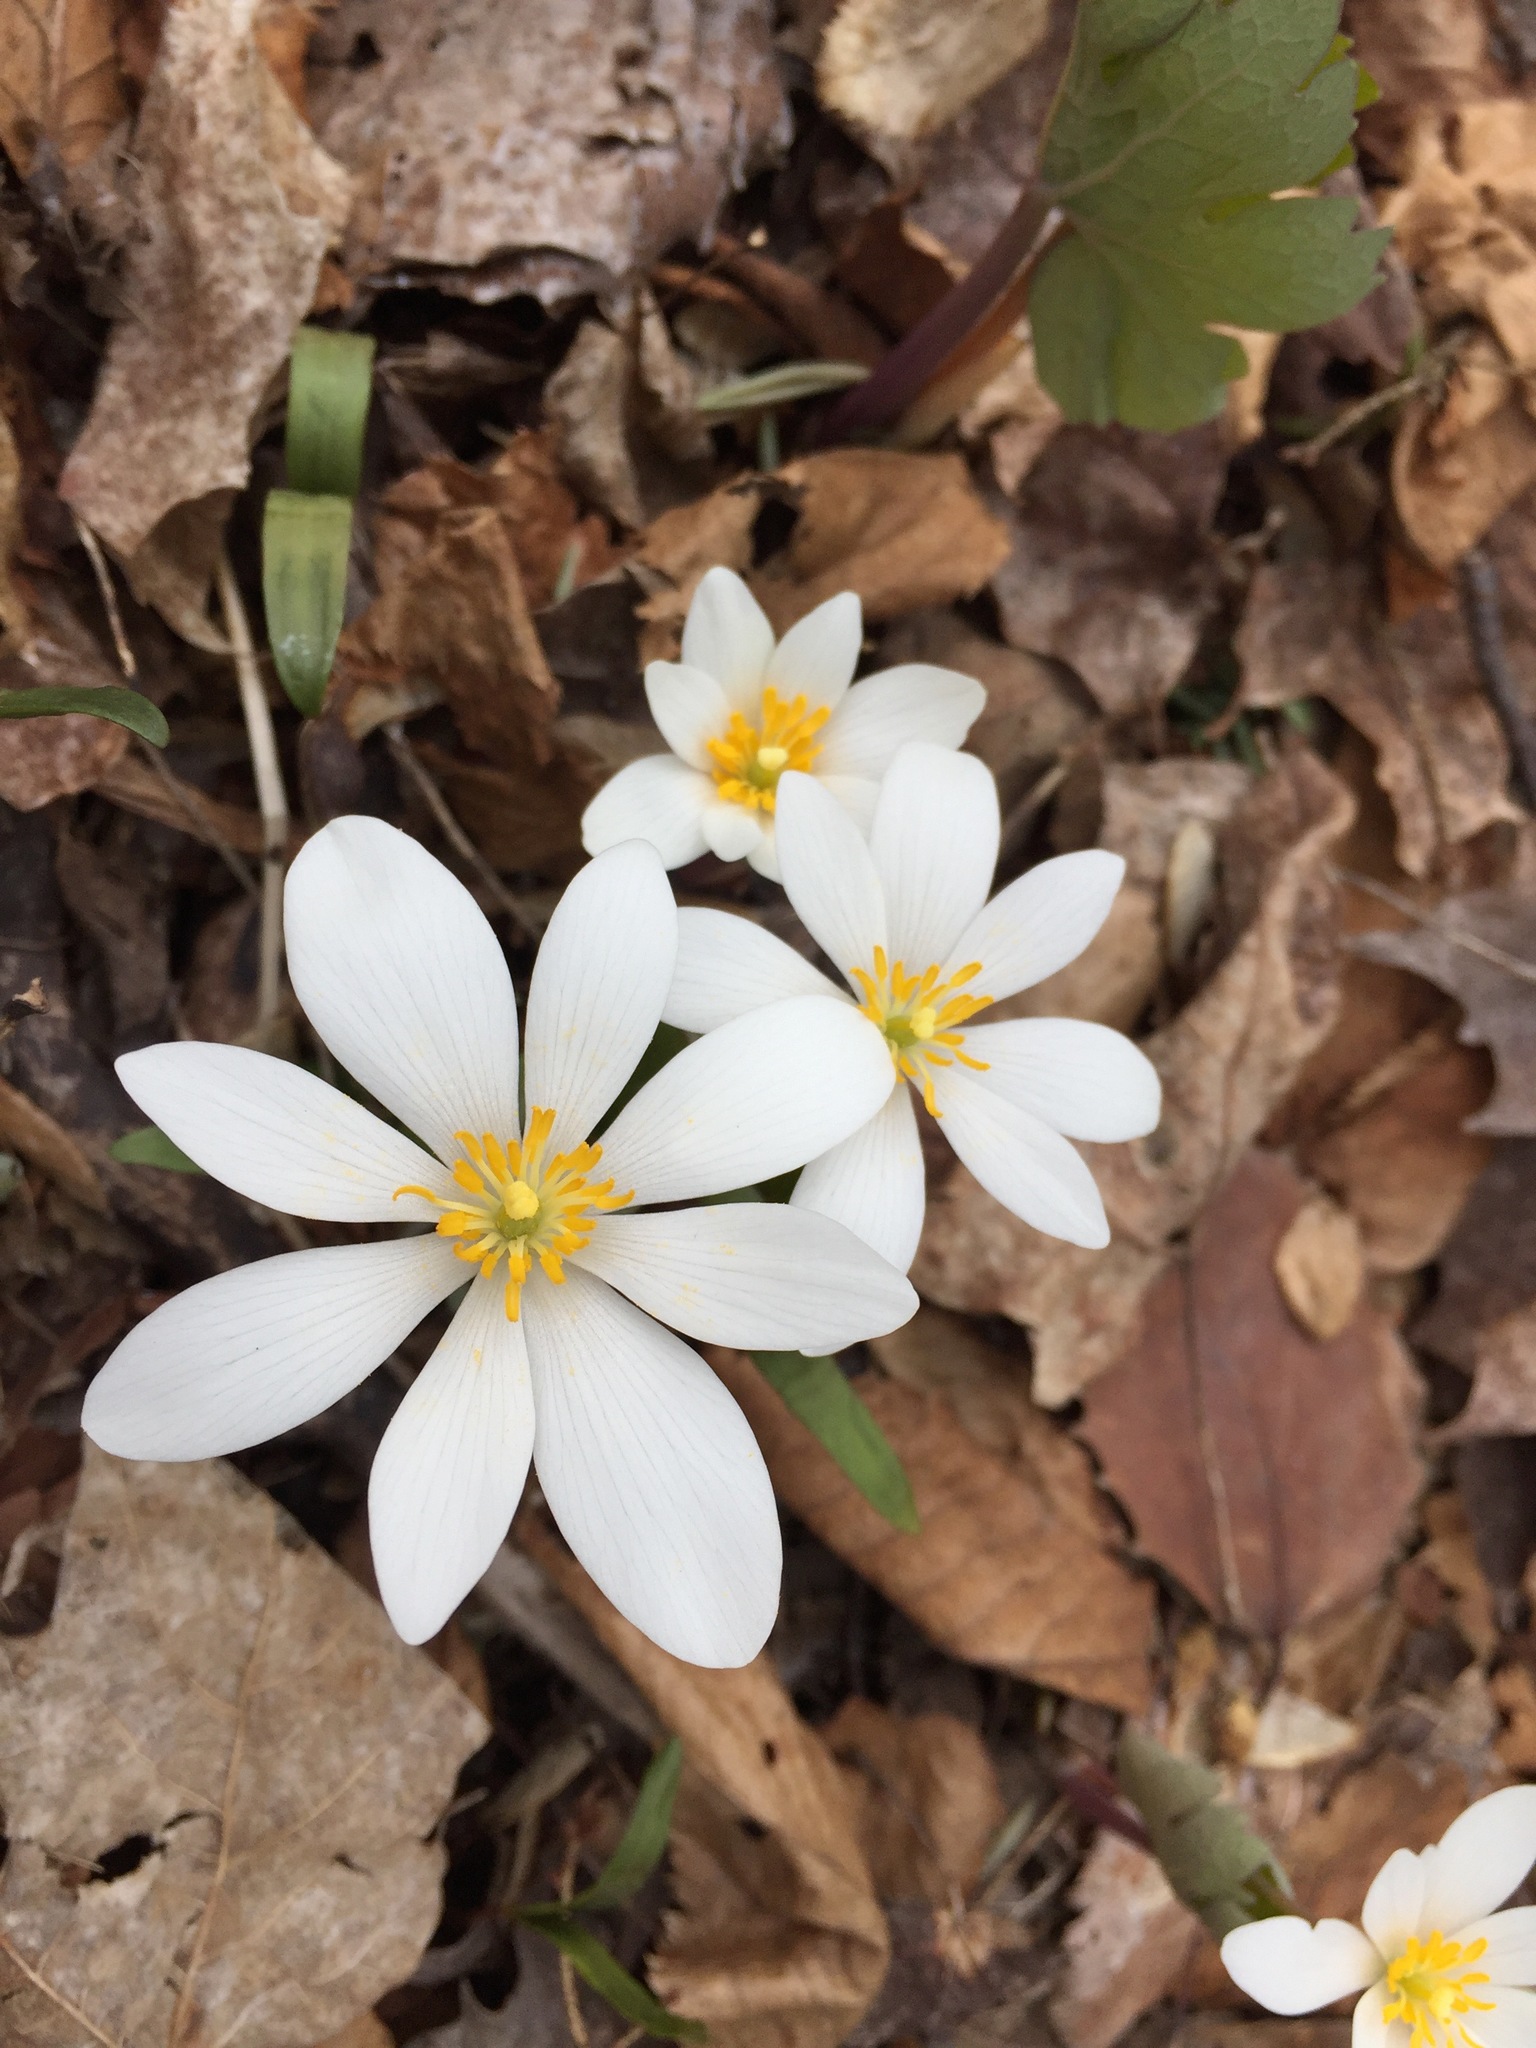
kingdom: Plantae
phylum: Tracheophyta
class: Magnoliopsida
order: Ranunculales
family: Papaveraceae
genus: Sanguinaria
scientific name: Sanguinaria canadensis
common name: Bloodroot
